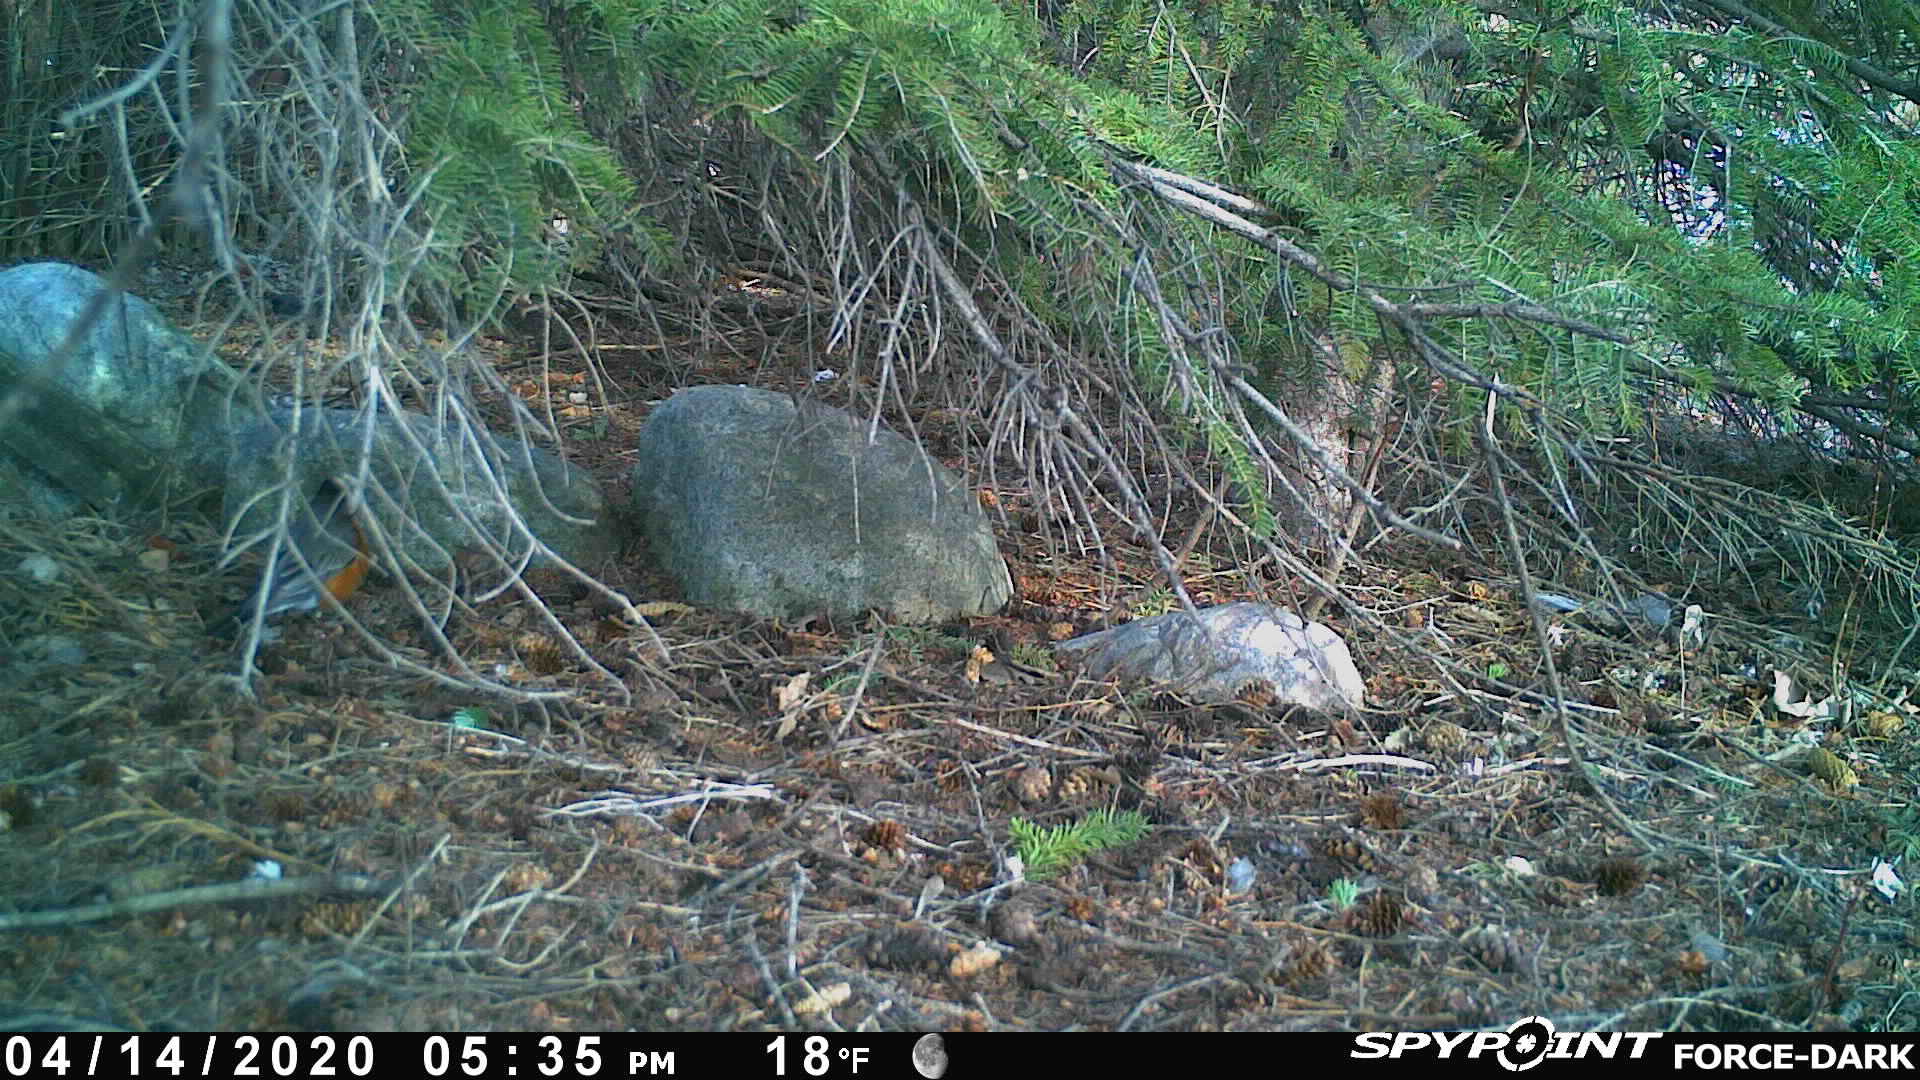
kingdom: Animalia
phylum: Chordata
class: Aves
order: Passeriformes
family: Turdidae
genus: Turdus
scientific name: Turdus migratorius
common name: American robin
